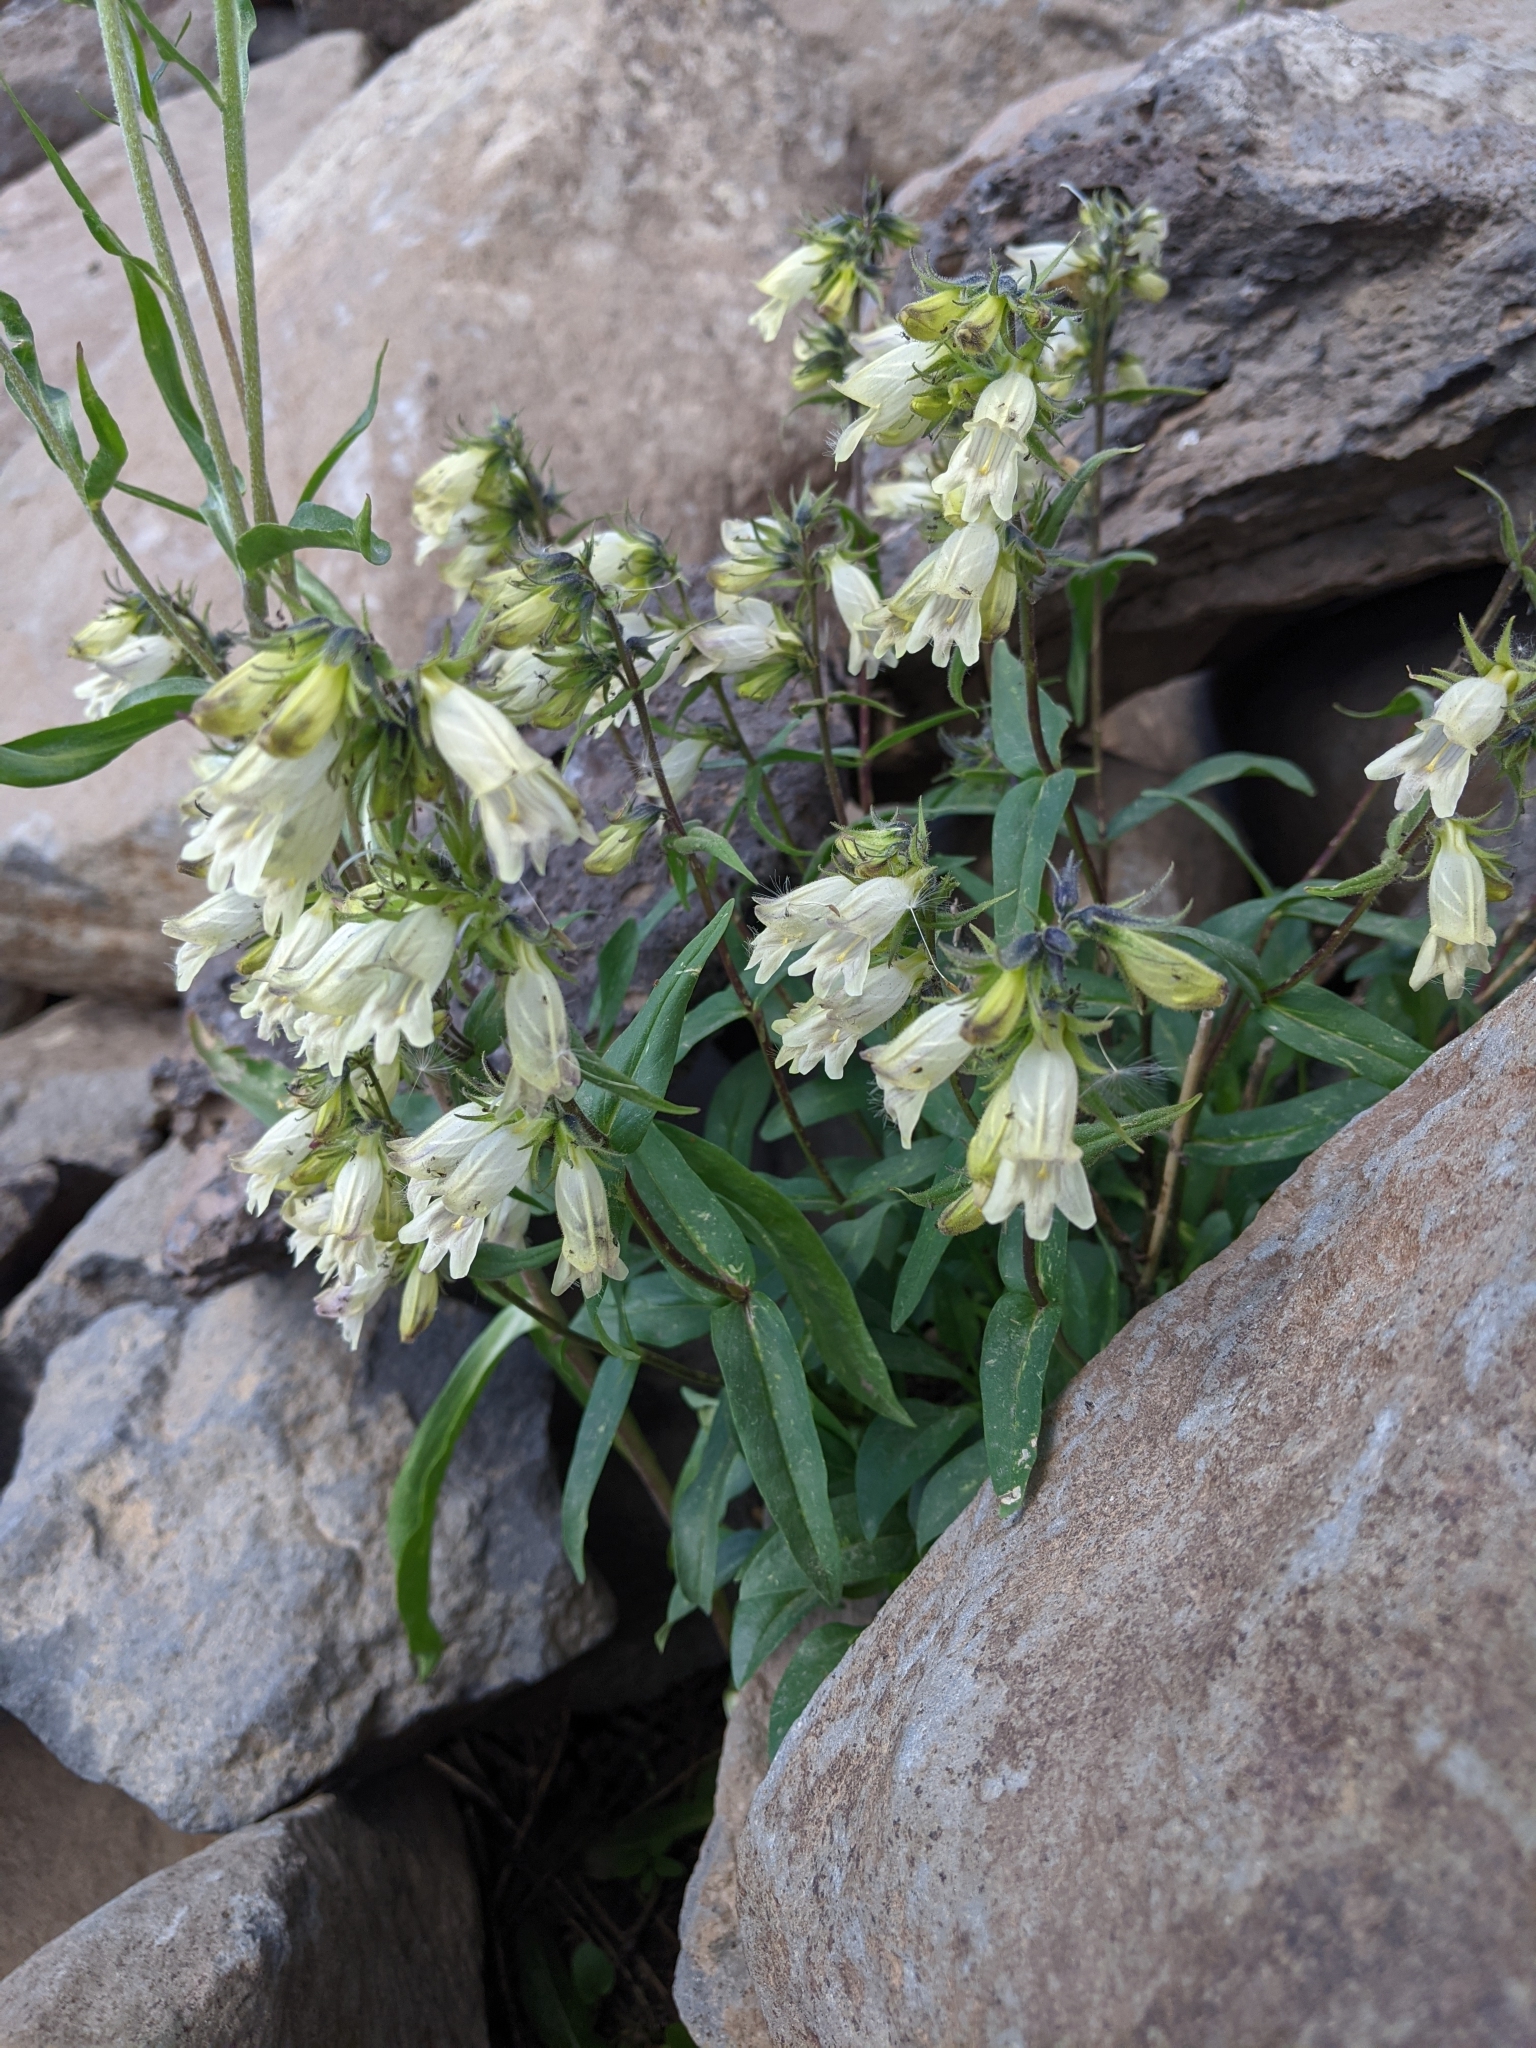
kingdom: Plantae
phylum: Tracheophyta
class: Magnoliopsida
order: Lamiales
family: Plantaginaceae
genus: Penstemon
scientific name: Penstemon whippleanus
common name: Whipple's penstemon
